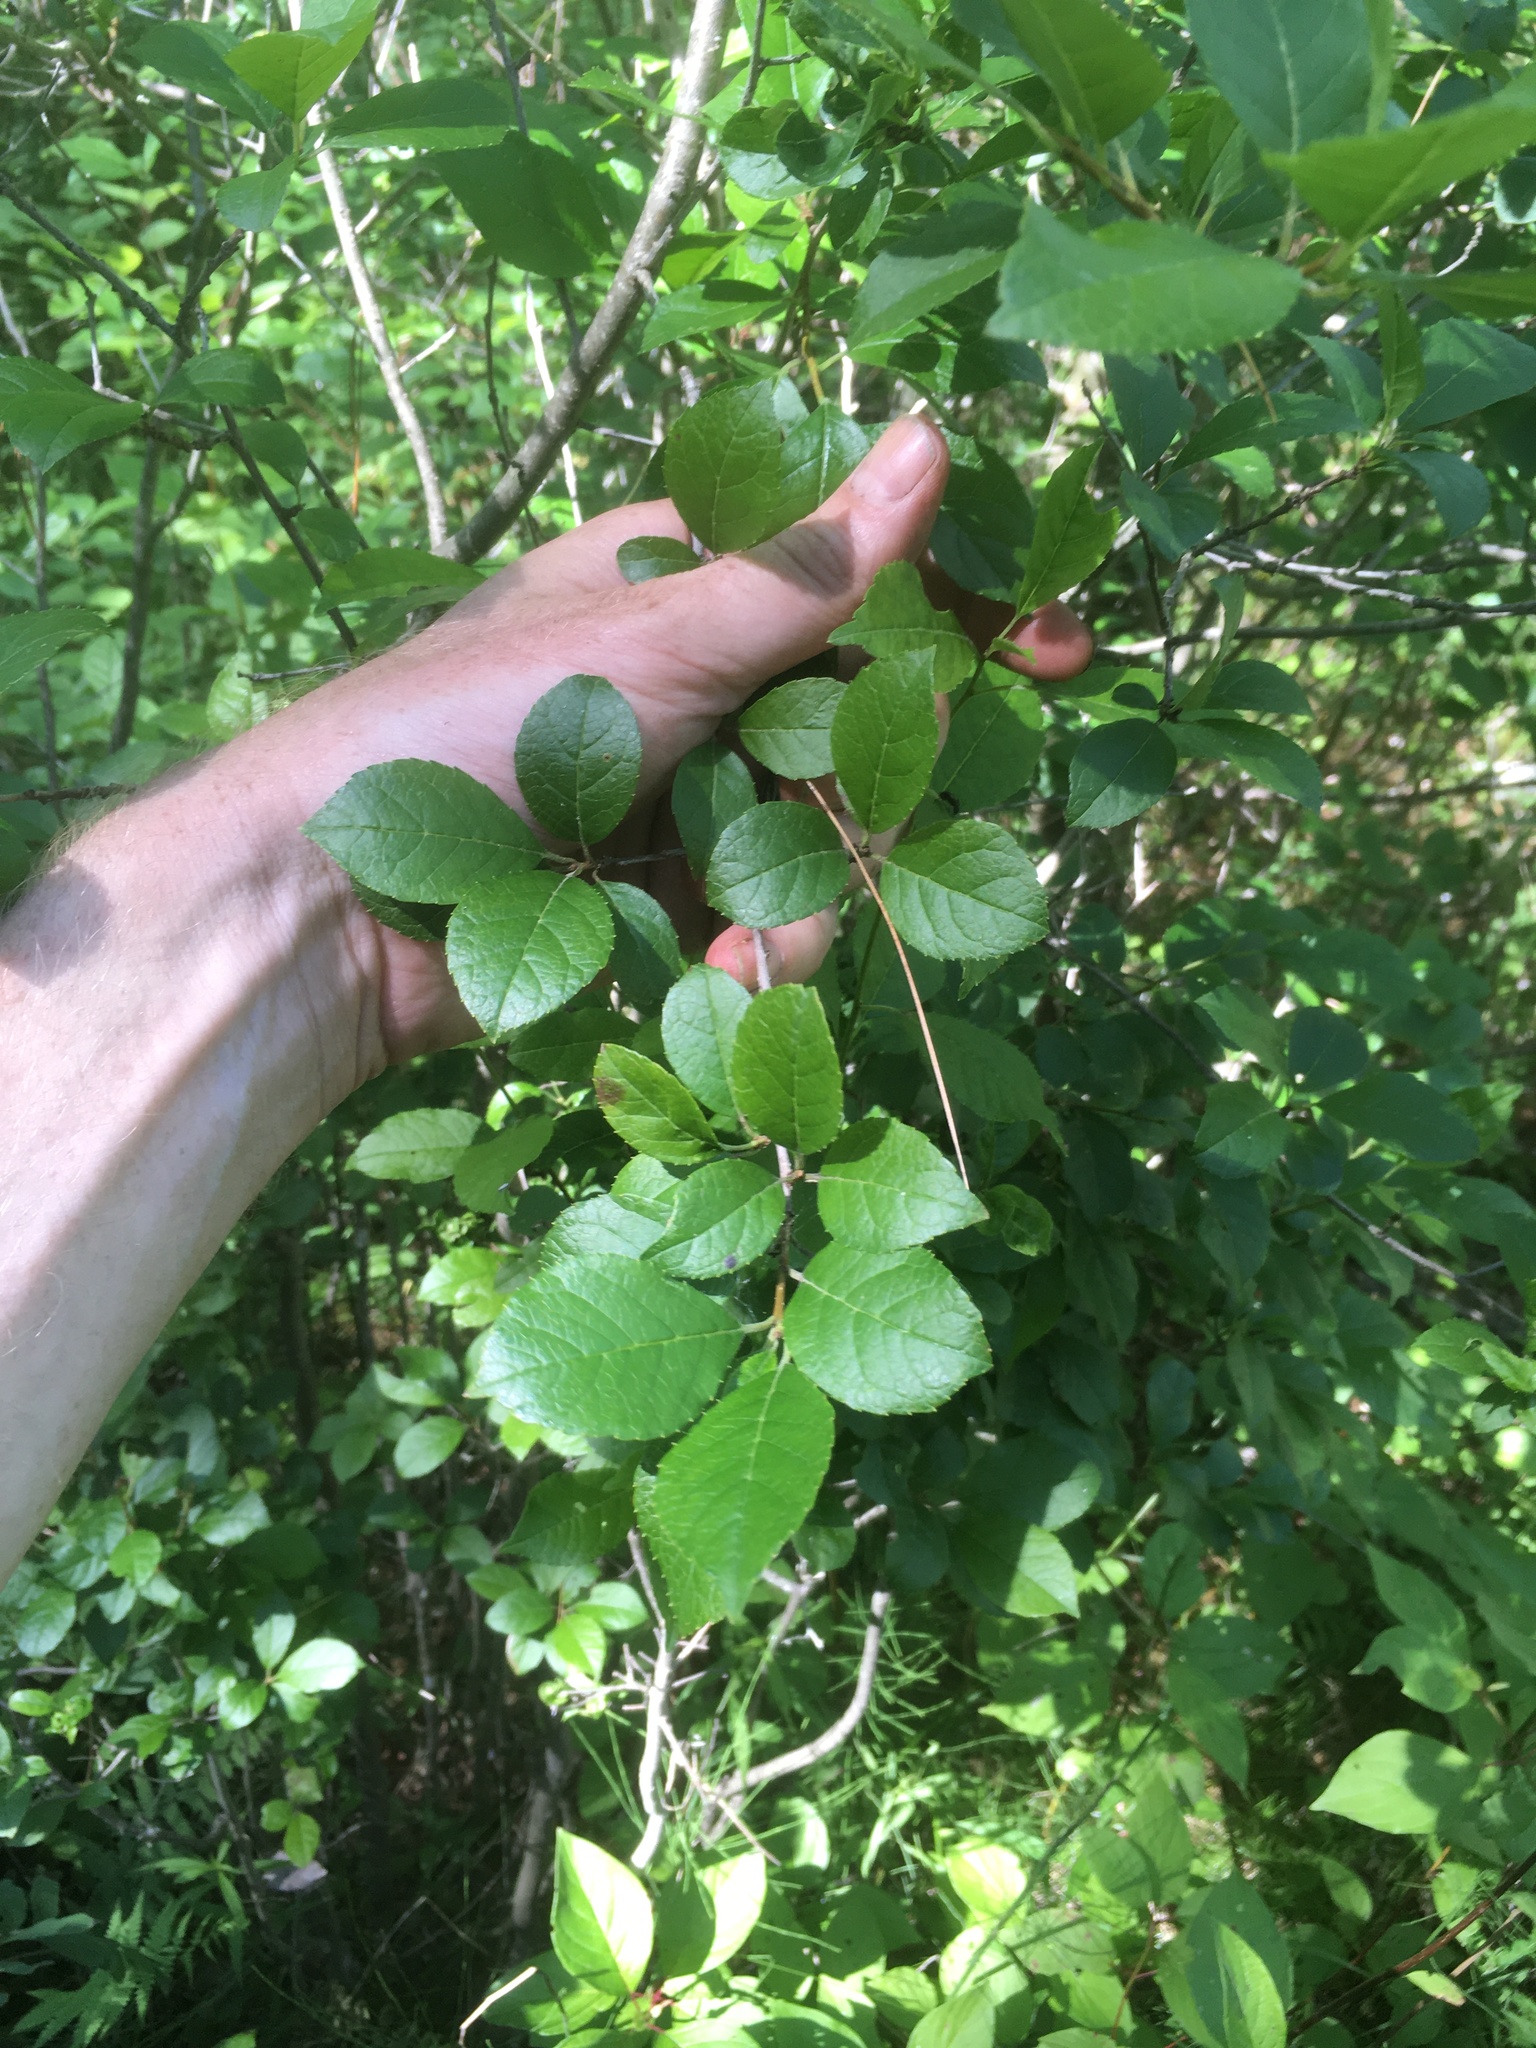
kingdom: Plantae
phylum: Tracheophyta
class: Magnoliopsida
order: Aquifoliales
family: Aquifoliaceae
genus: Ilex
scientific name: Ilex verticillata
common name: Virginia winterberry
